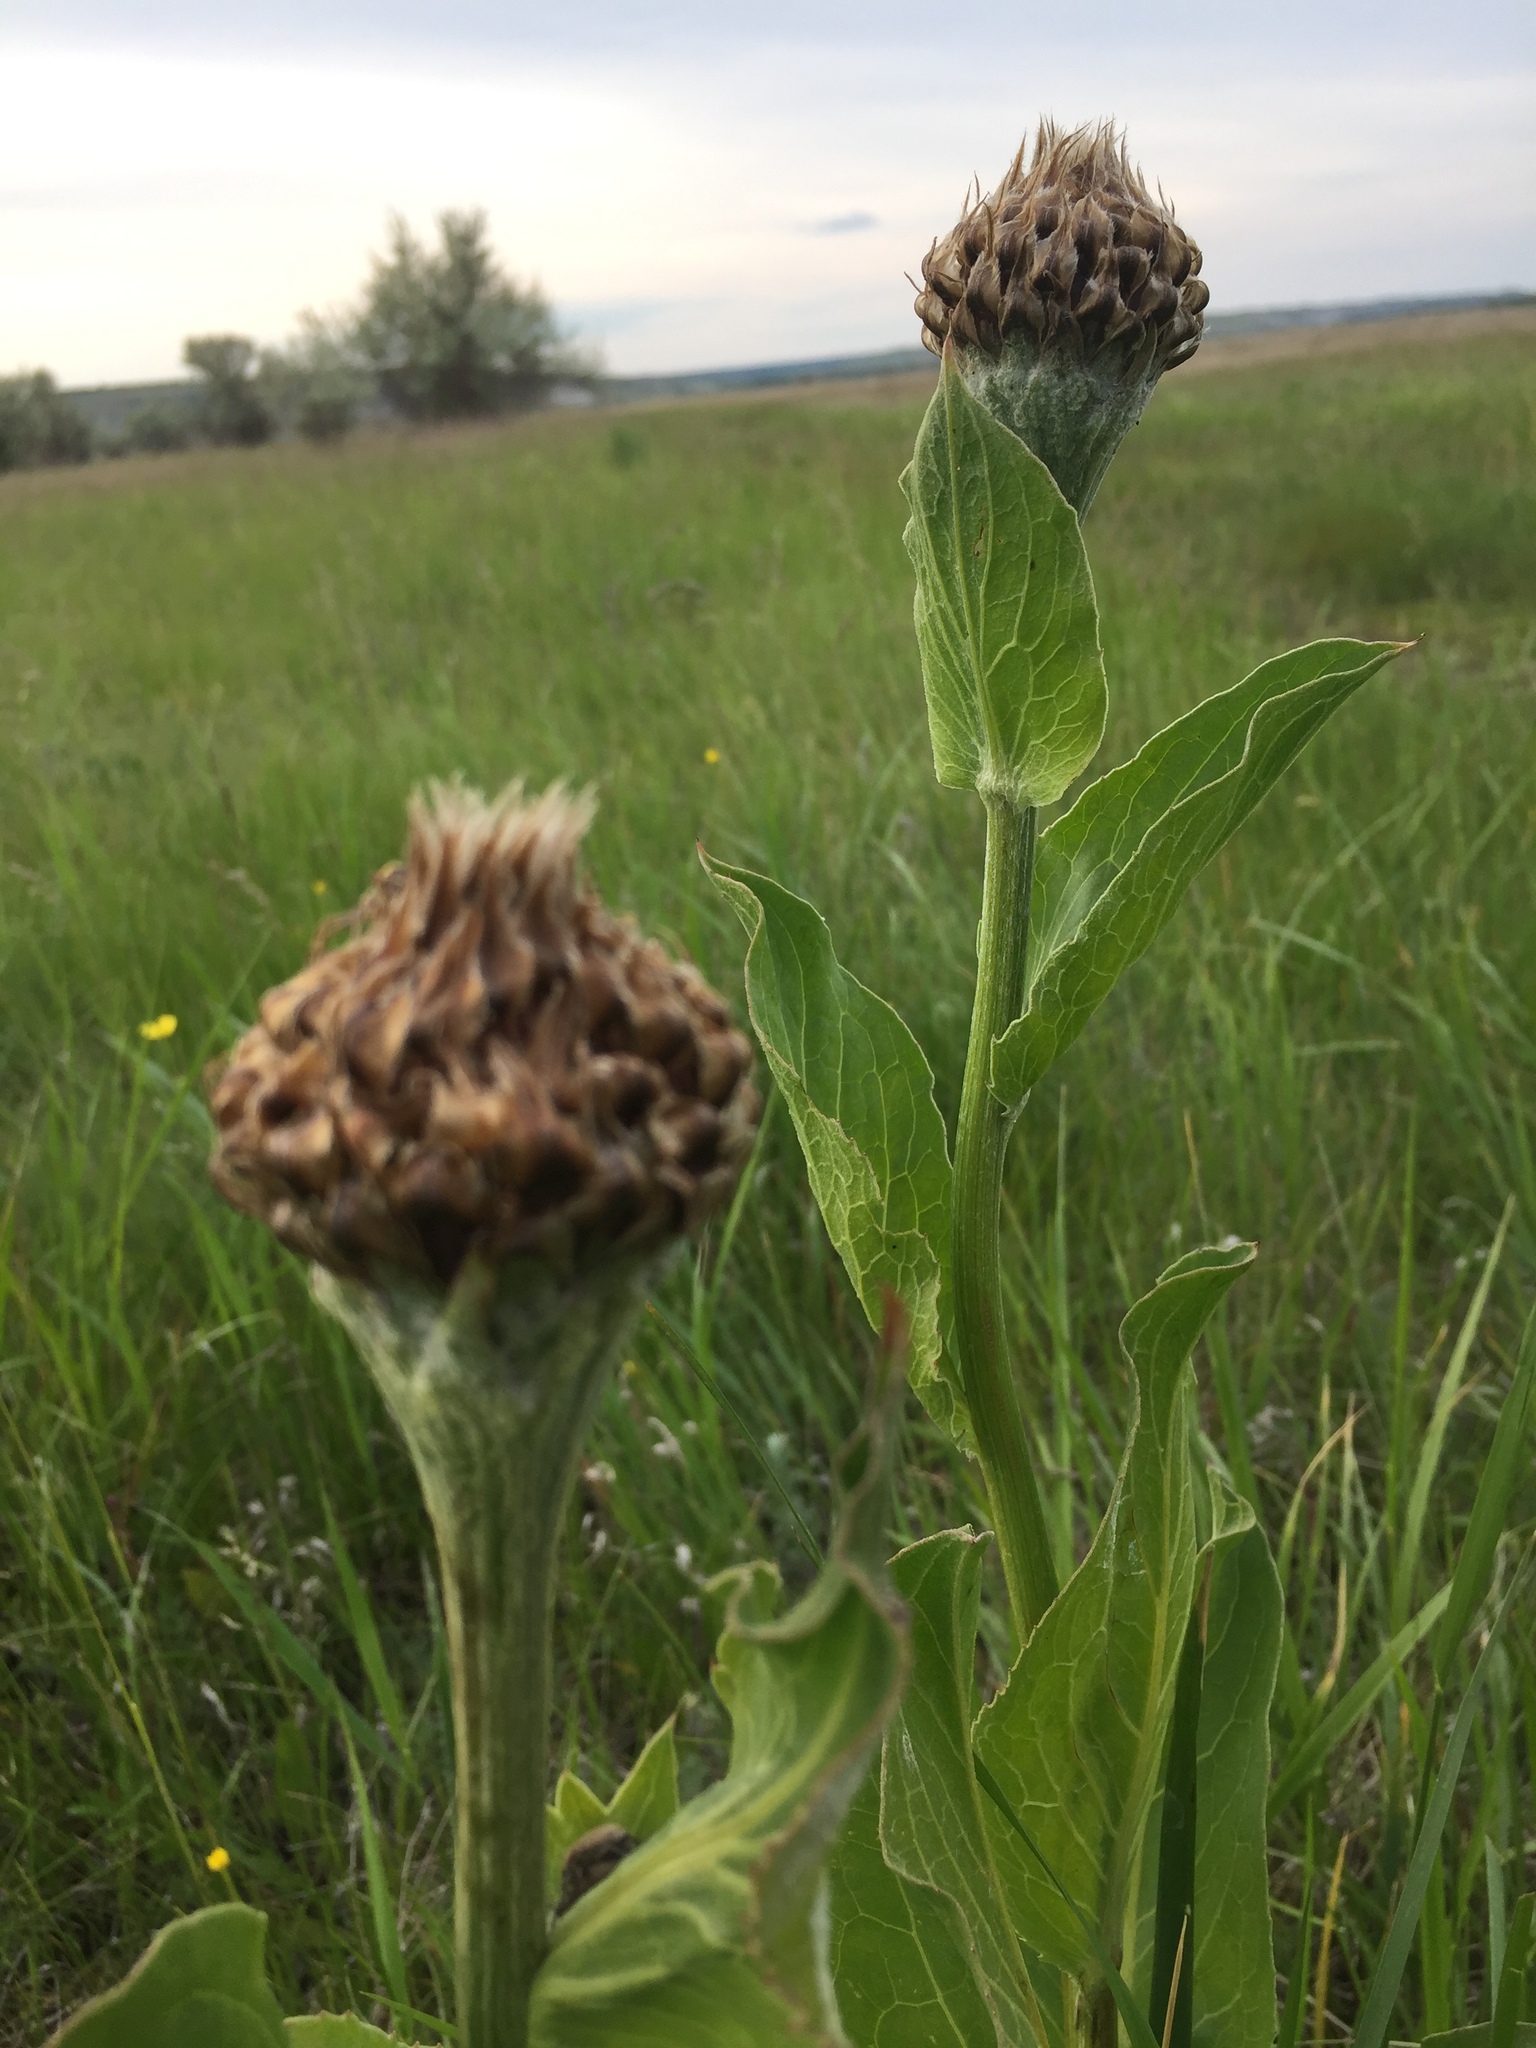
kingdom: Plantae
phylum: Tracheophyta
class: Magnoliopsida
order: Asterales
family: Asteraceae
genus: Leuzea
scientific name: Leuzea carthamoides
